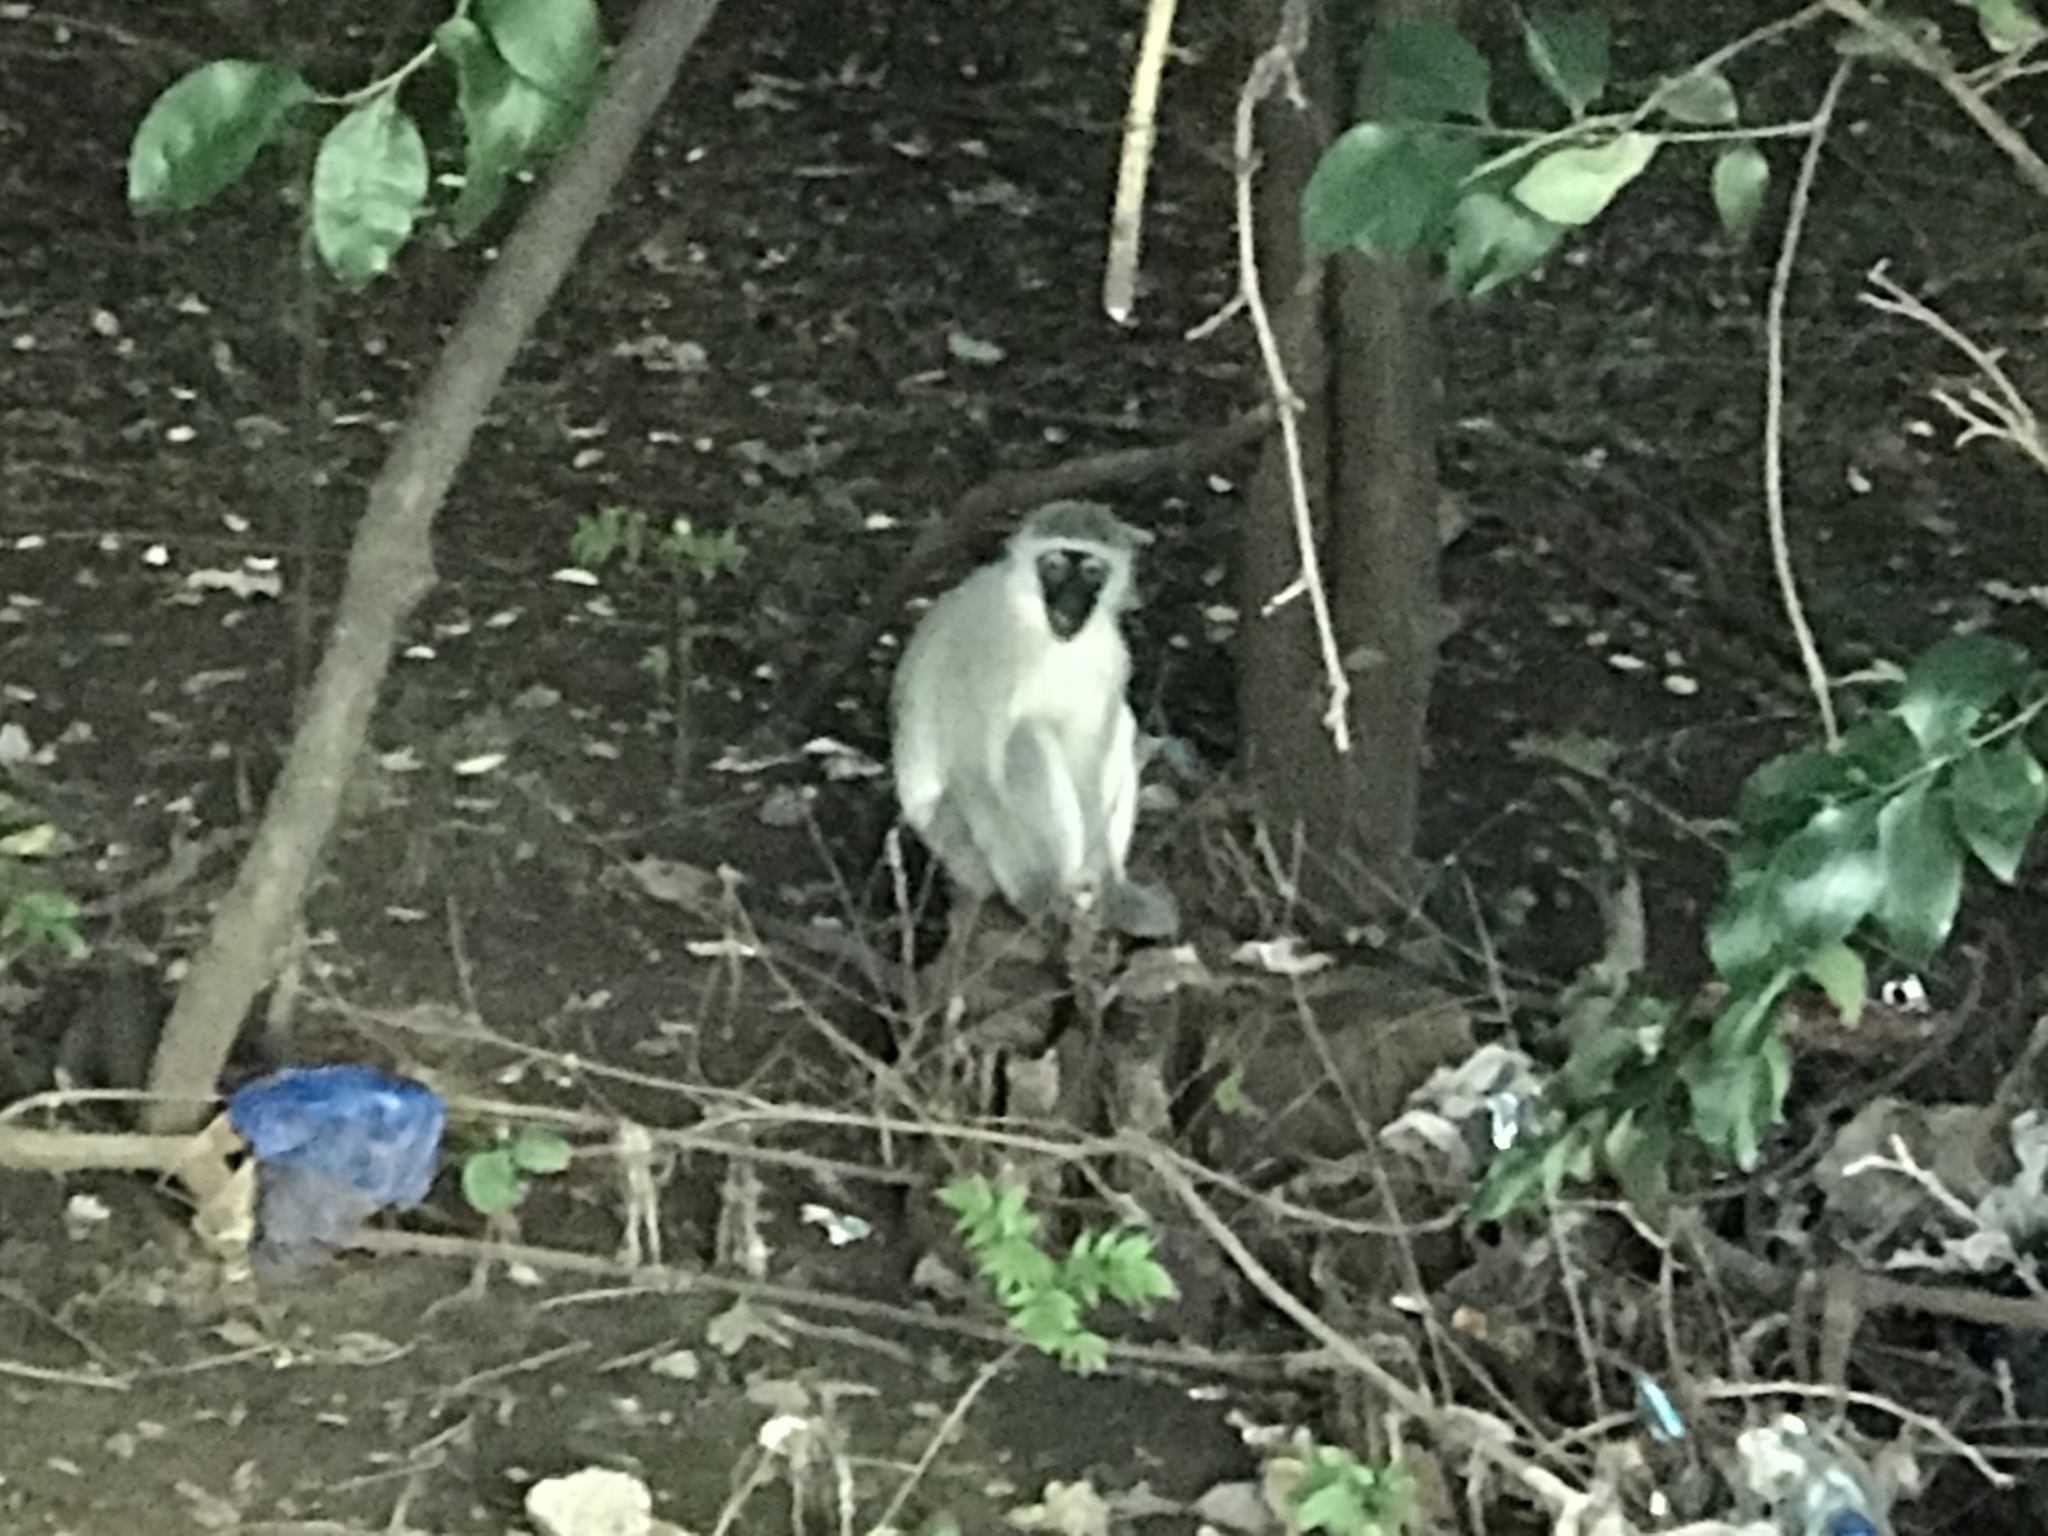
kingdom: Animalia
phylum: Chordata
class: Mammalia
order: Primates
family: Cercopithecidae
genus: Chlorocebus
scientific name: Chlorocebus pygerythrus
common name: Vervet monkey
